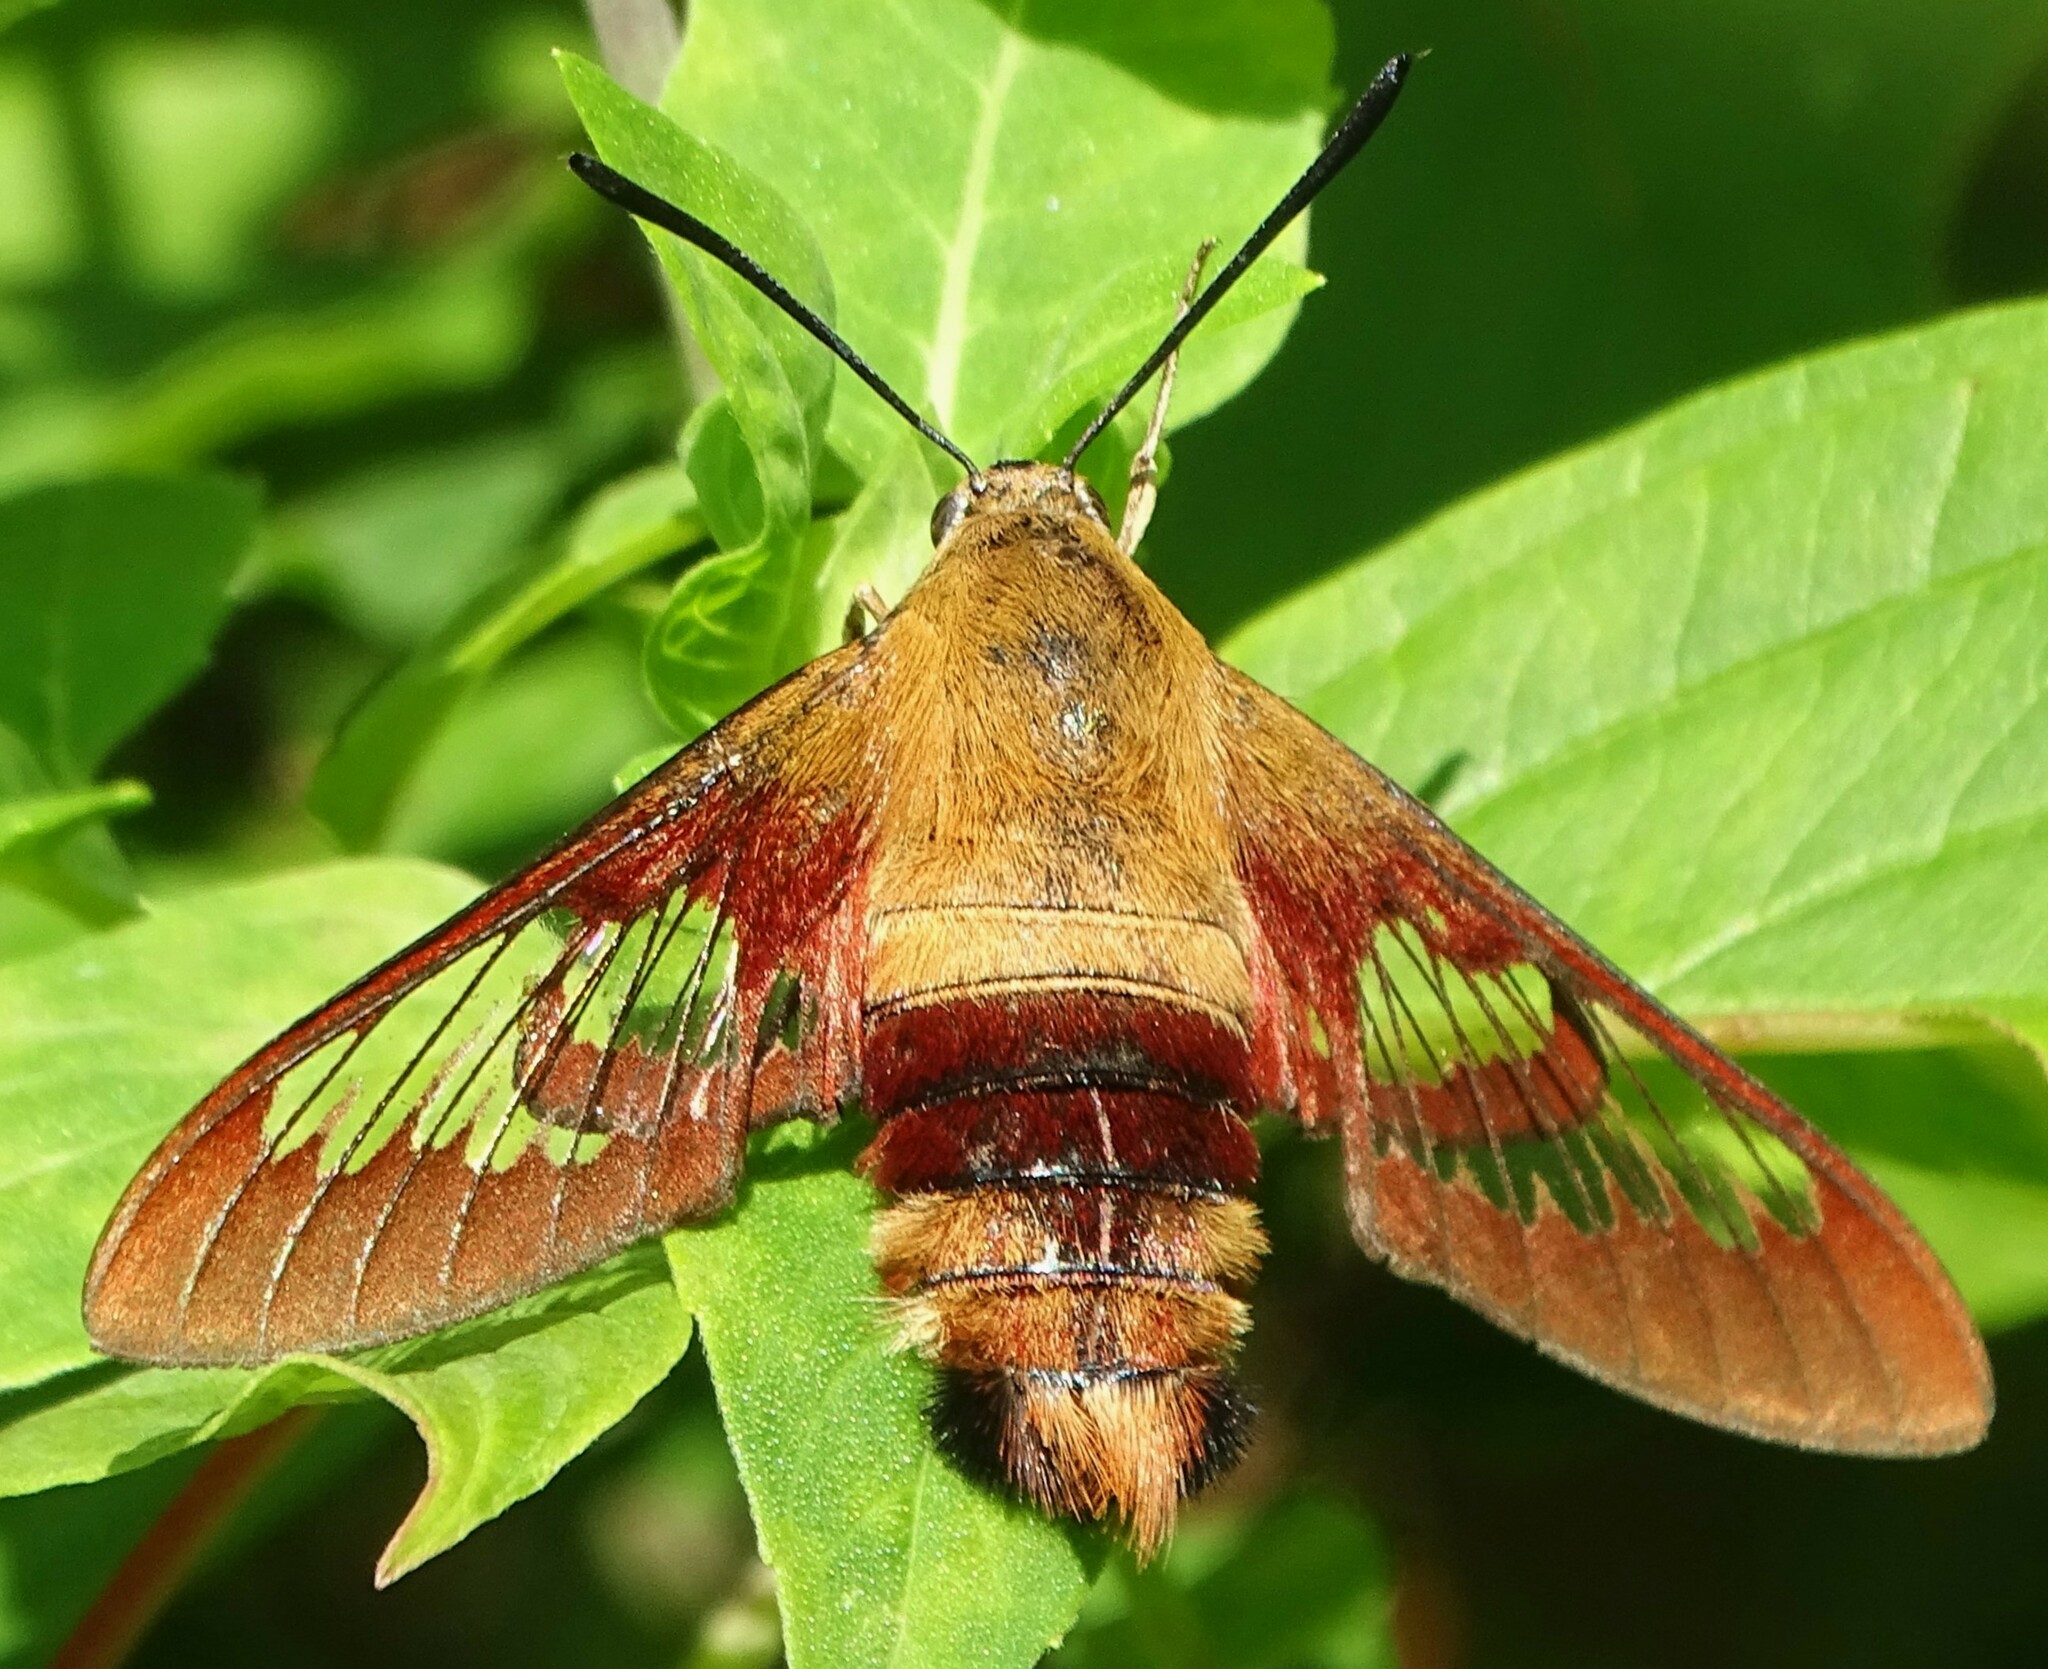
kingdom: Animalia
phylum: Arthropoda
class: Insecta
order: Lepidoptera
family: Sphingidae
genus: Hemaris
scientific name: Hemaris thysbe
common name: Common clear-wing
